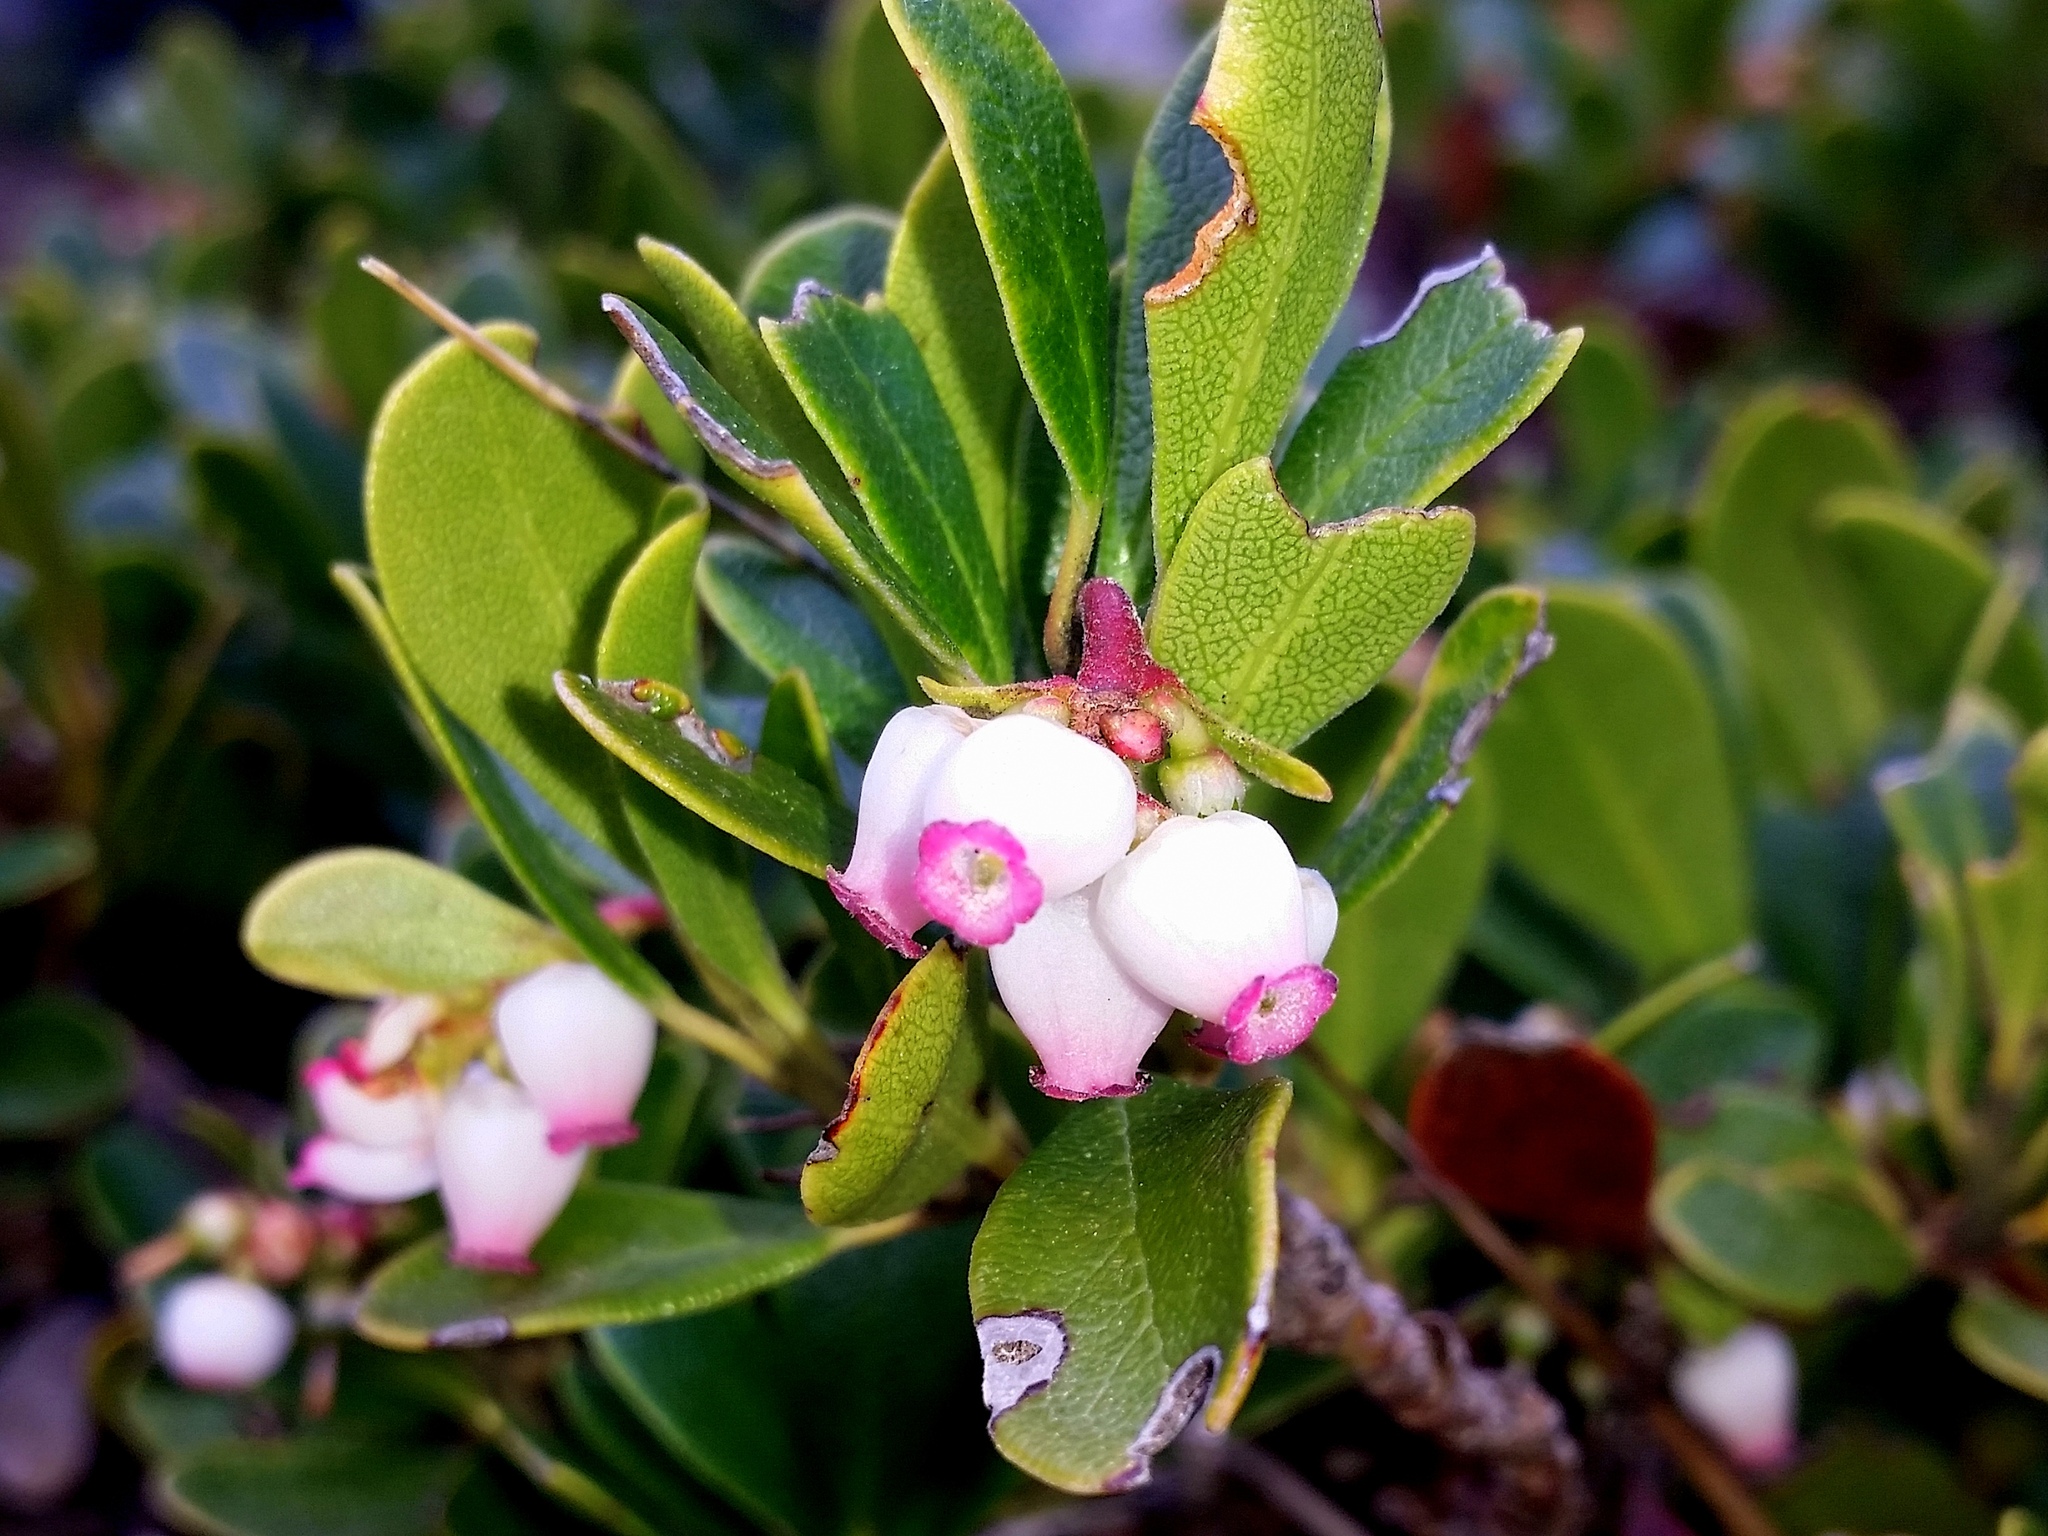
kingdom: Plantae
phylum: Tracheophyta
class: Magnoliopsida
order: Ericales
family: Ericaceae
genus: Arctostaphylos
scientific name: Arctostaphylos uva-ursi
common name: Bearberry
